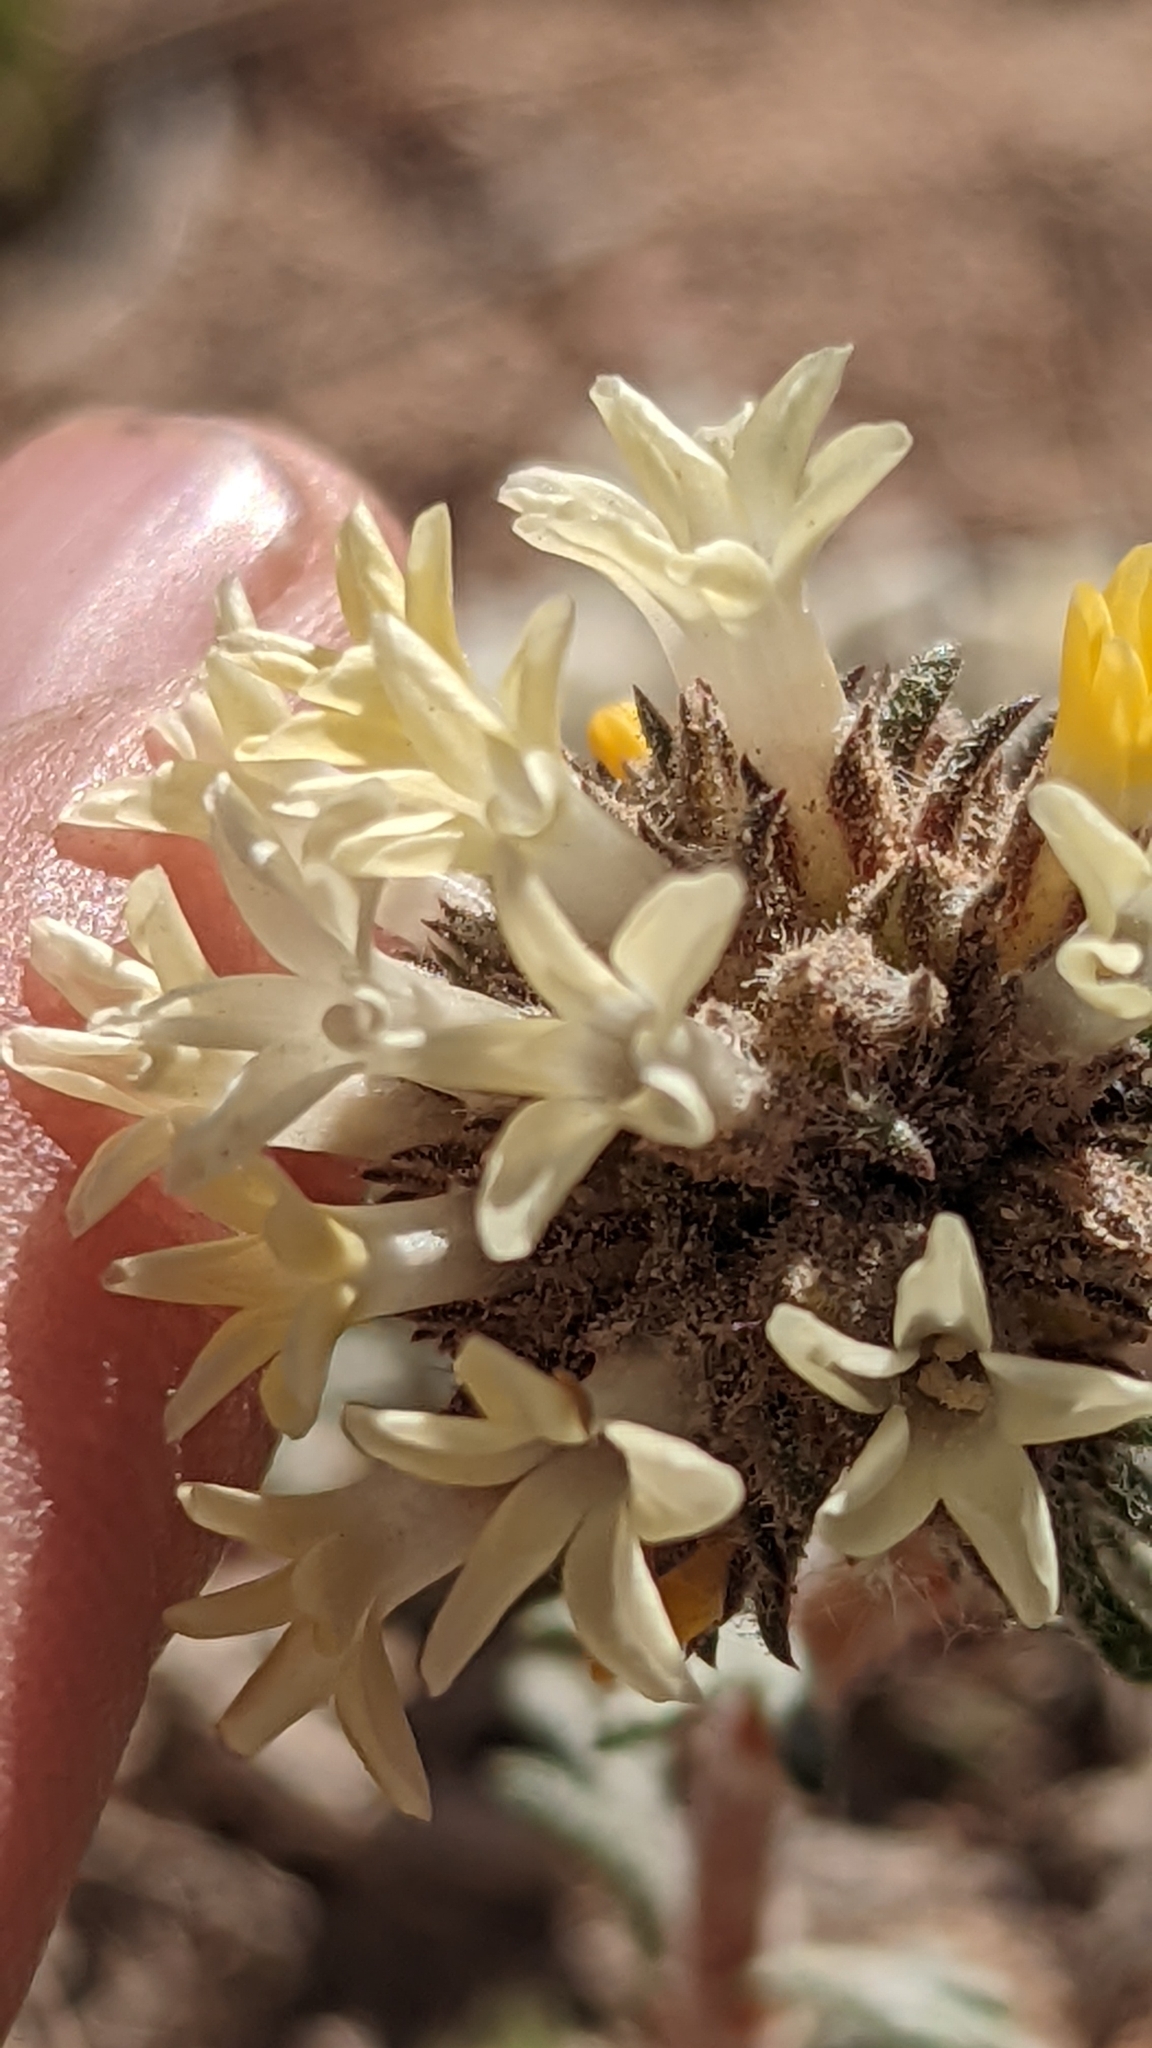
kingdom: Plantae
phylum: Tracheophyta
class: Magnoliopsida
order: Ericales
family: Polemoniaceae
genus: Ipomopsis
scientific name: Ipomopsis spicata
